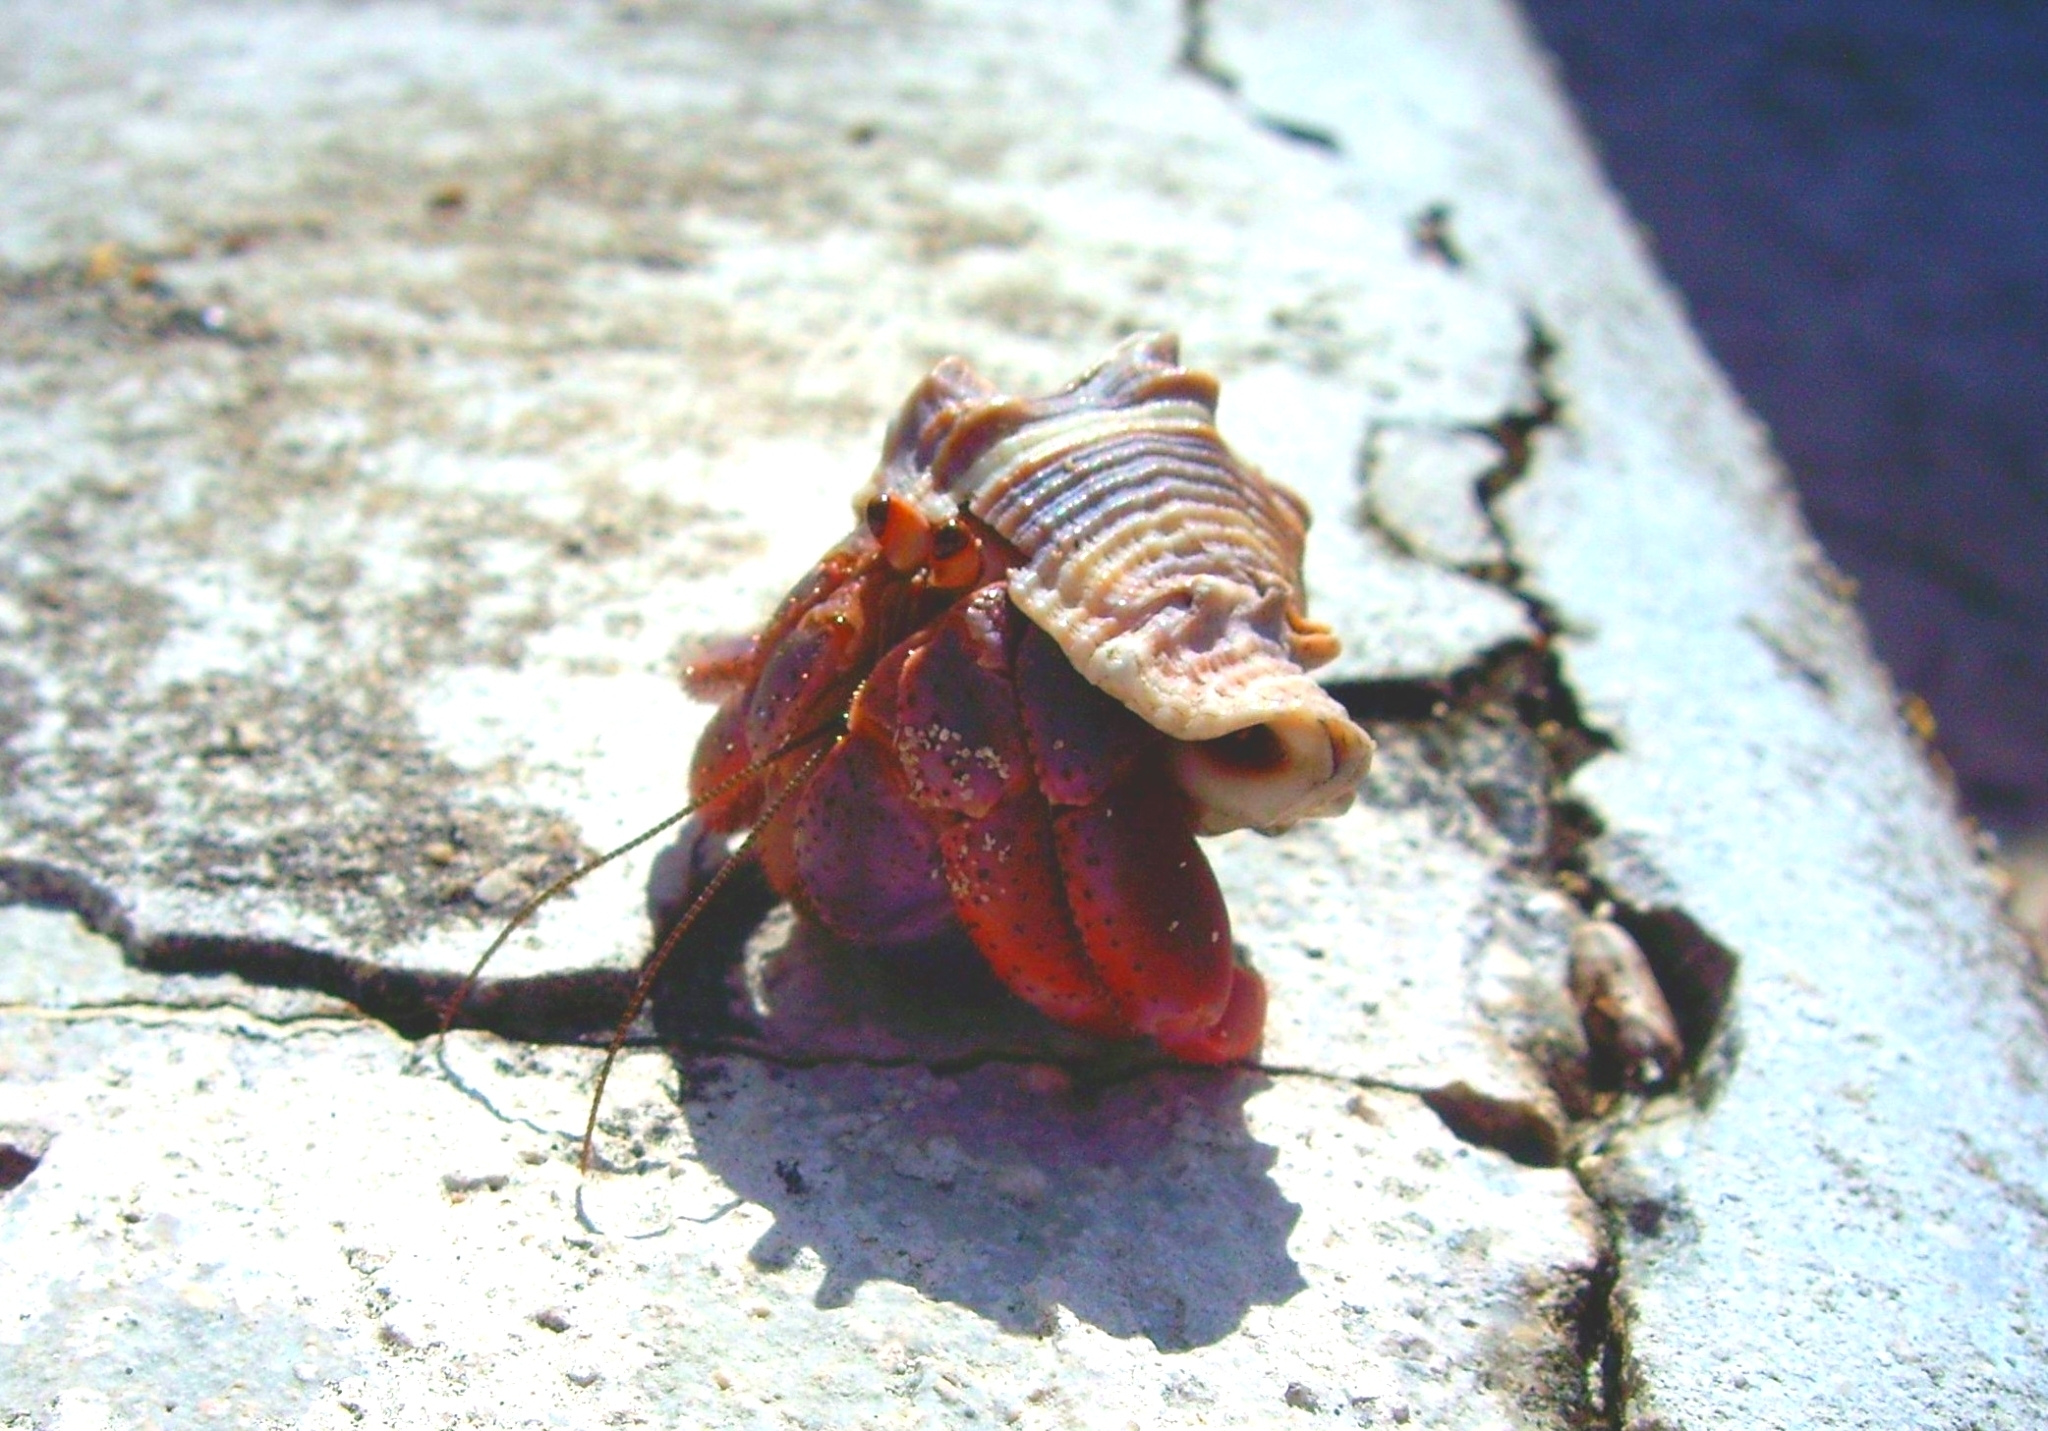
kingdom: Animalia
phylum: Arthropoda
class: Malacostraca
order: Decapoda
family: Coenobitidae
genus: Coenobita
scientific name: Coenobita clypeatus
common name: Caribbean hermit crab
